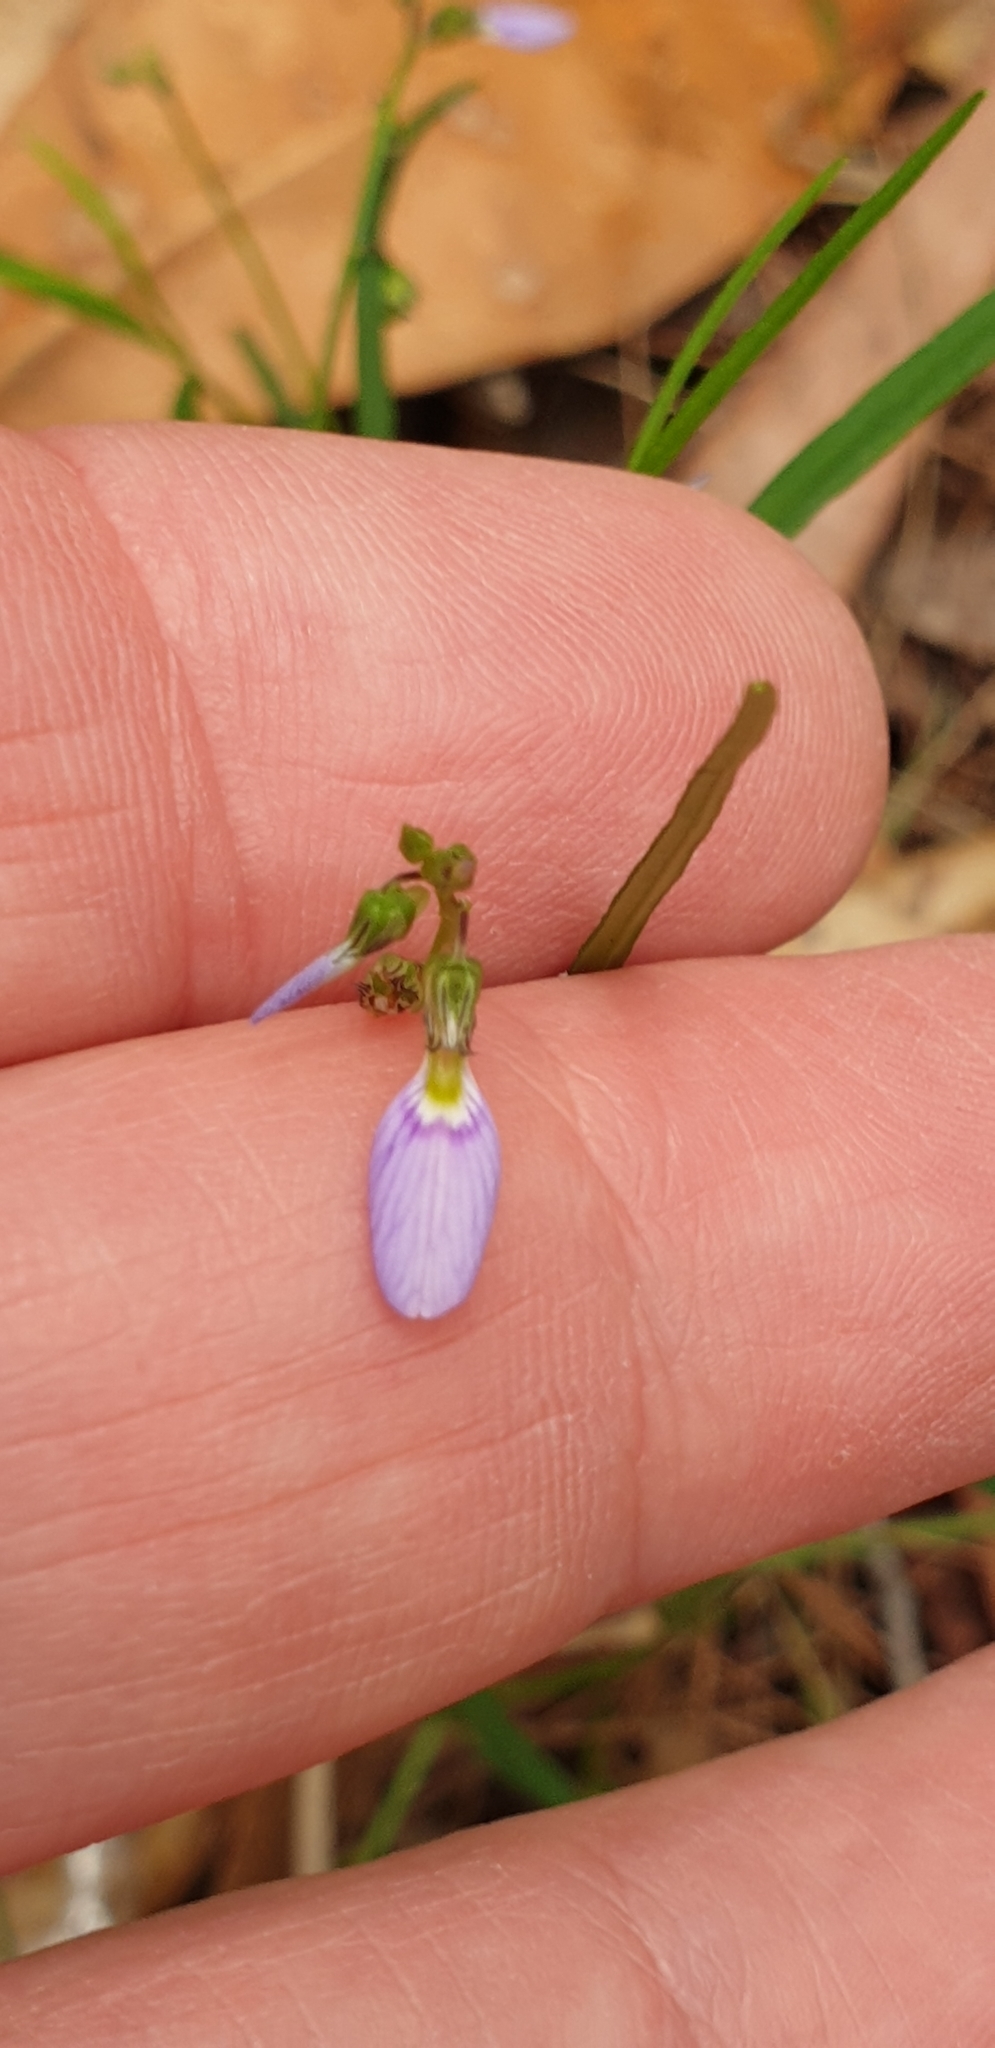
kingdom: Plantae
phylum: Tracheophyta
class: Magnoliopsida
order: Malpighiales
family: Violaceae
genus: Pigea
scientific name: Pigea monopetala
